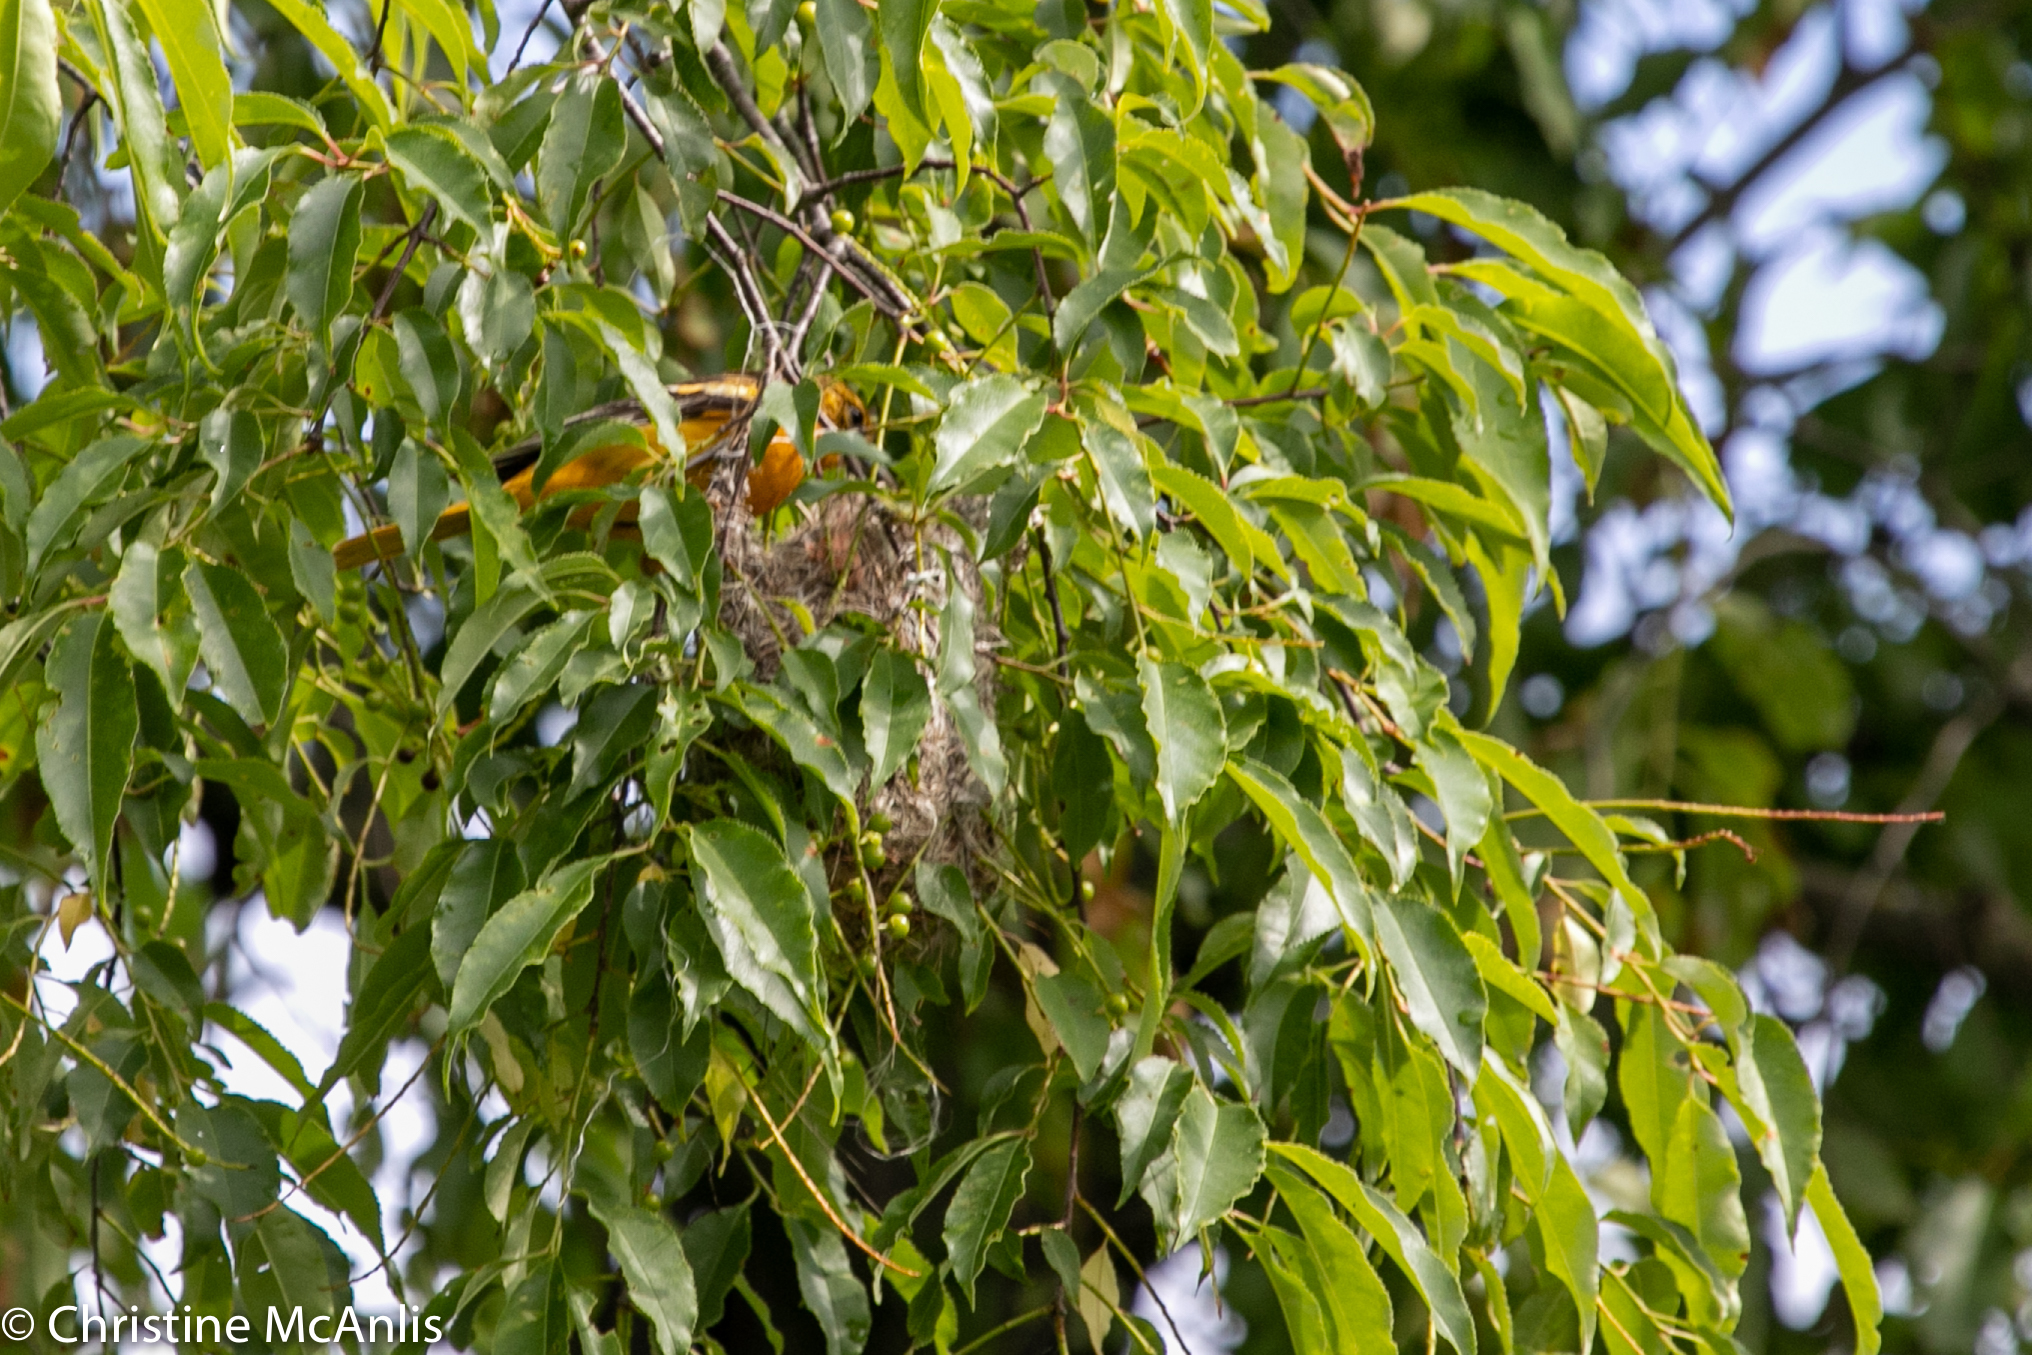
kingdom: Animalia
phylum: Chordata
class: Aves
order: Passeriformes
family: Icteridae
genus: Icterus
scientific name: Icterus galbula
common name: Baltimore oriole
